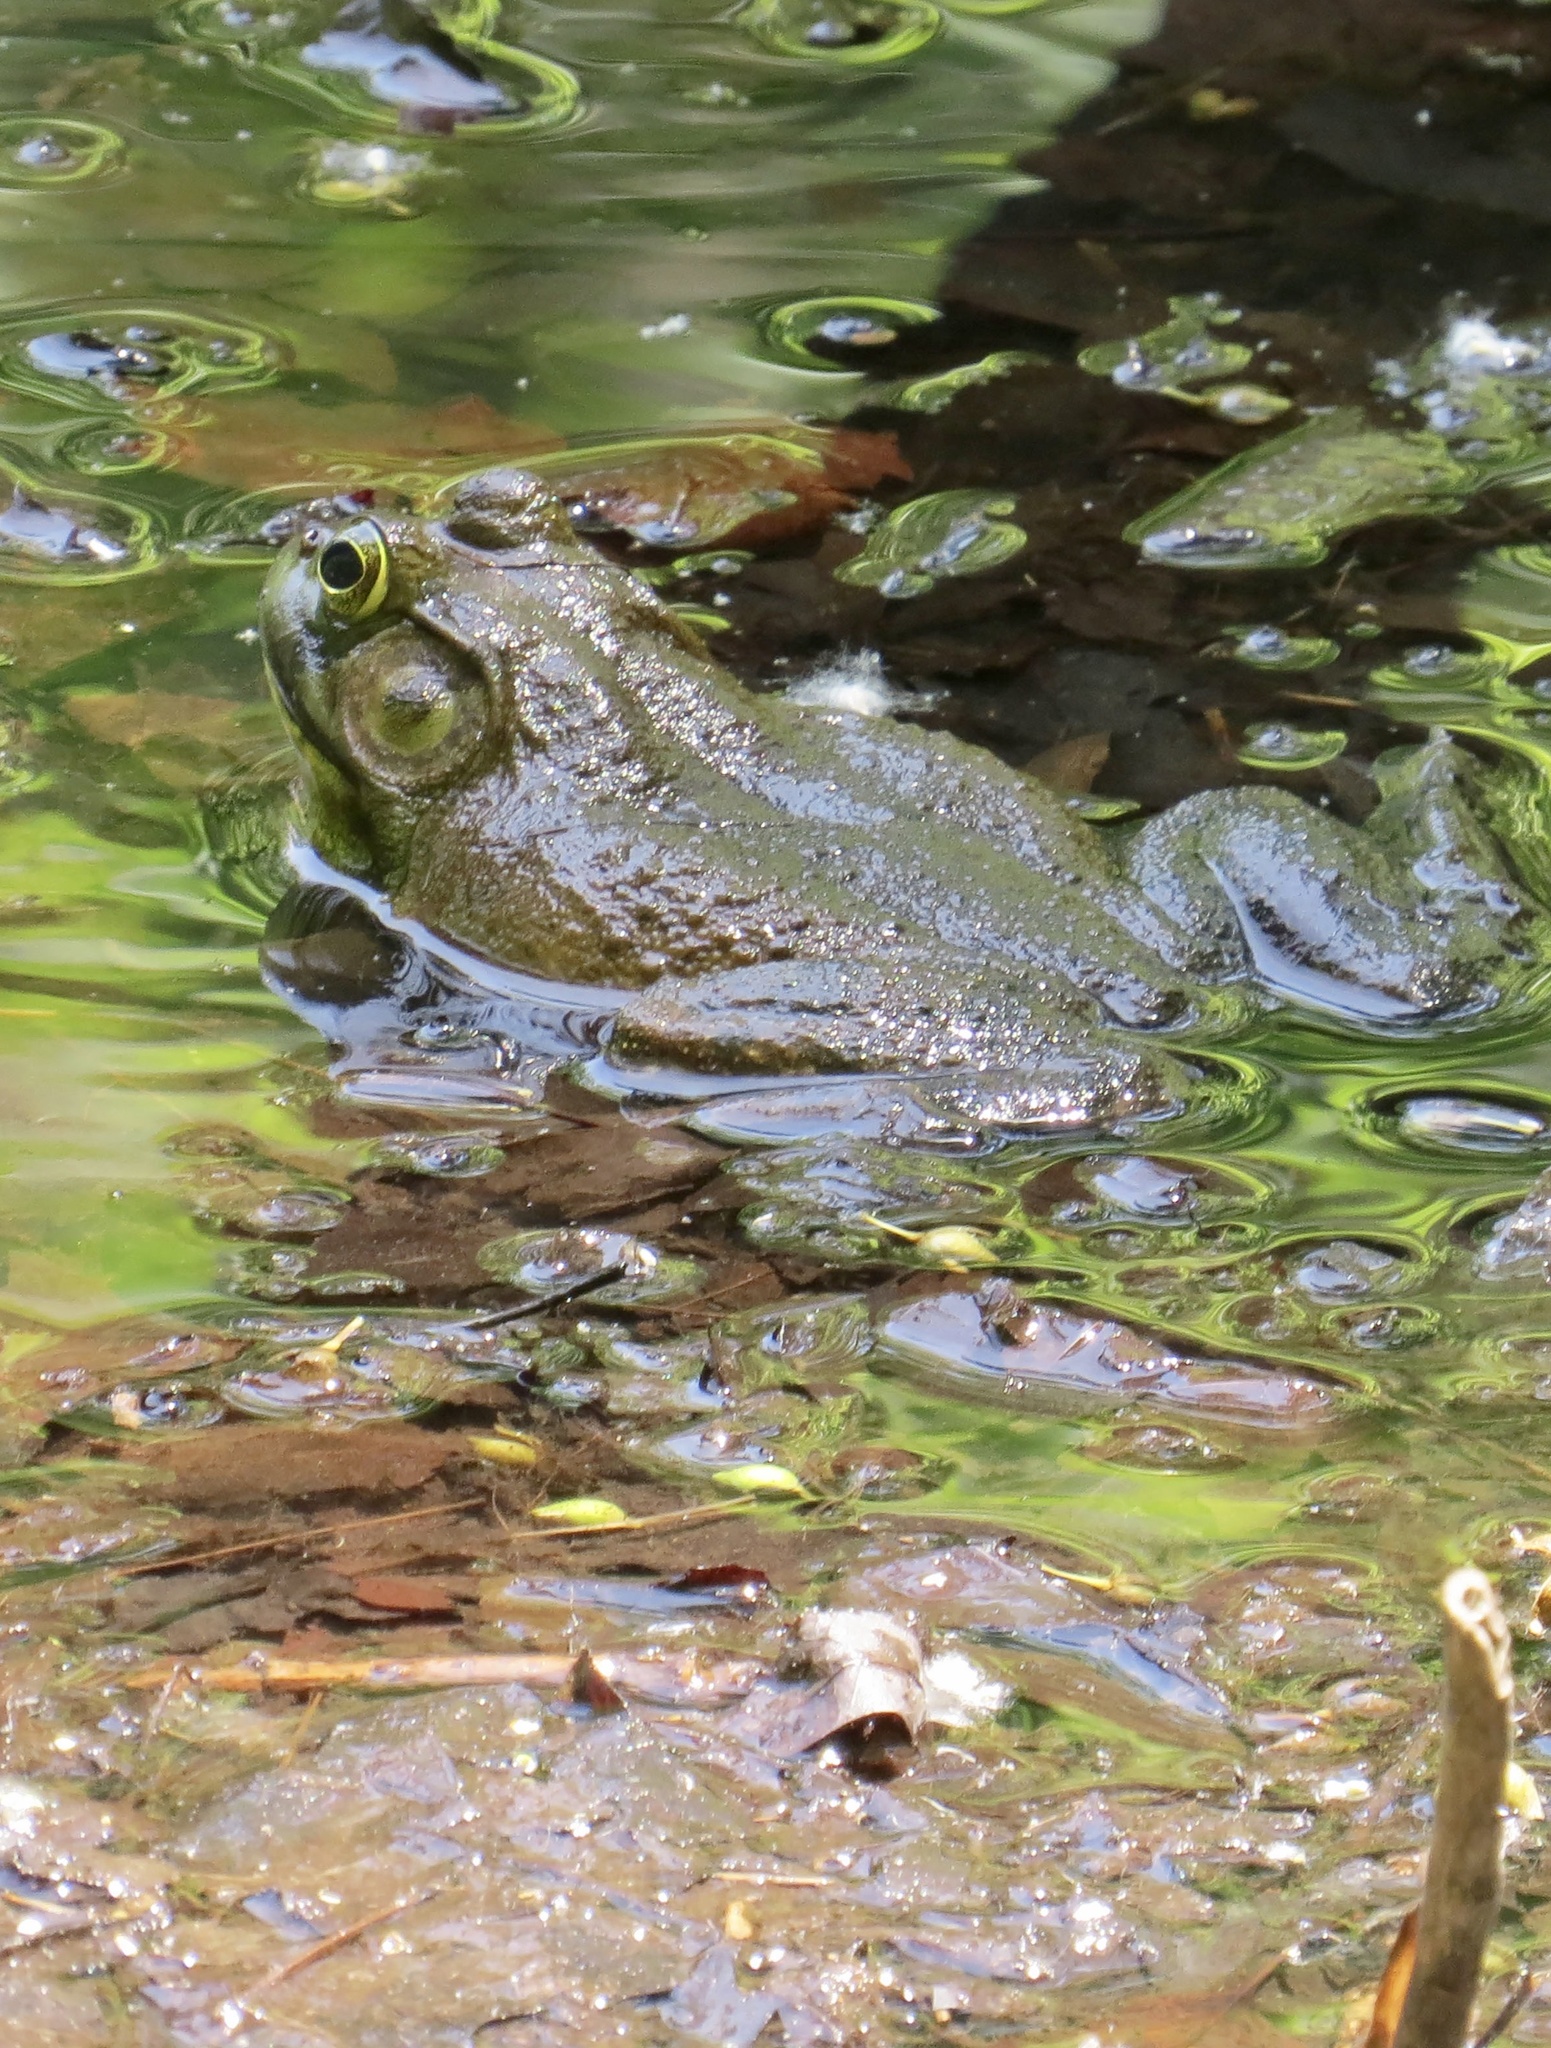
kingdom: Animalia
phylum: Chordata
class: Amphibia
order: Anura
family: Ranidae
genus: Lithobates
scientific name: Lithobates catesbeianus
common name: American bullfrog
